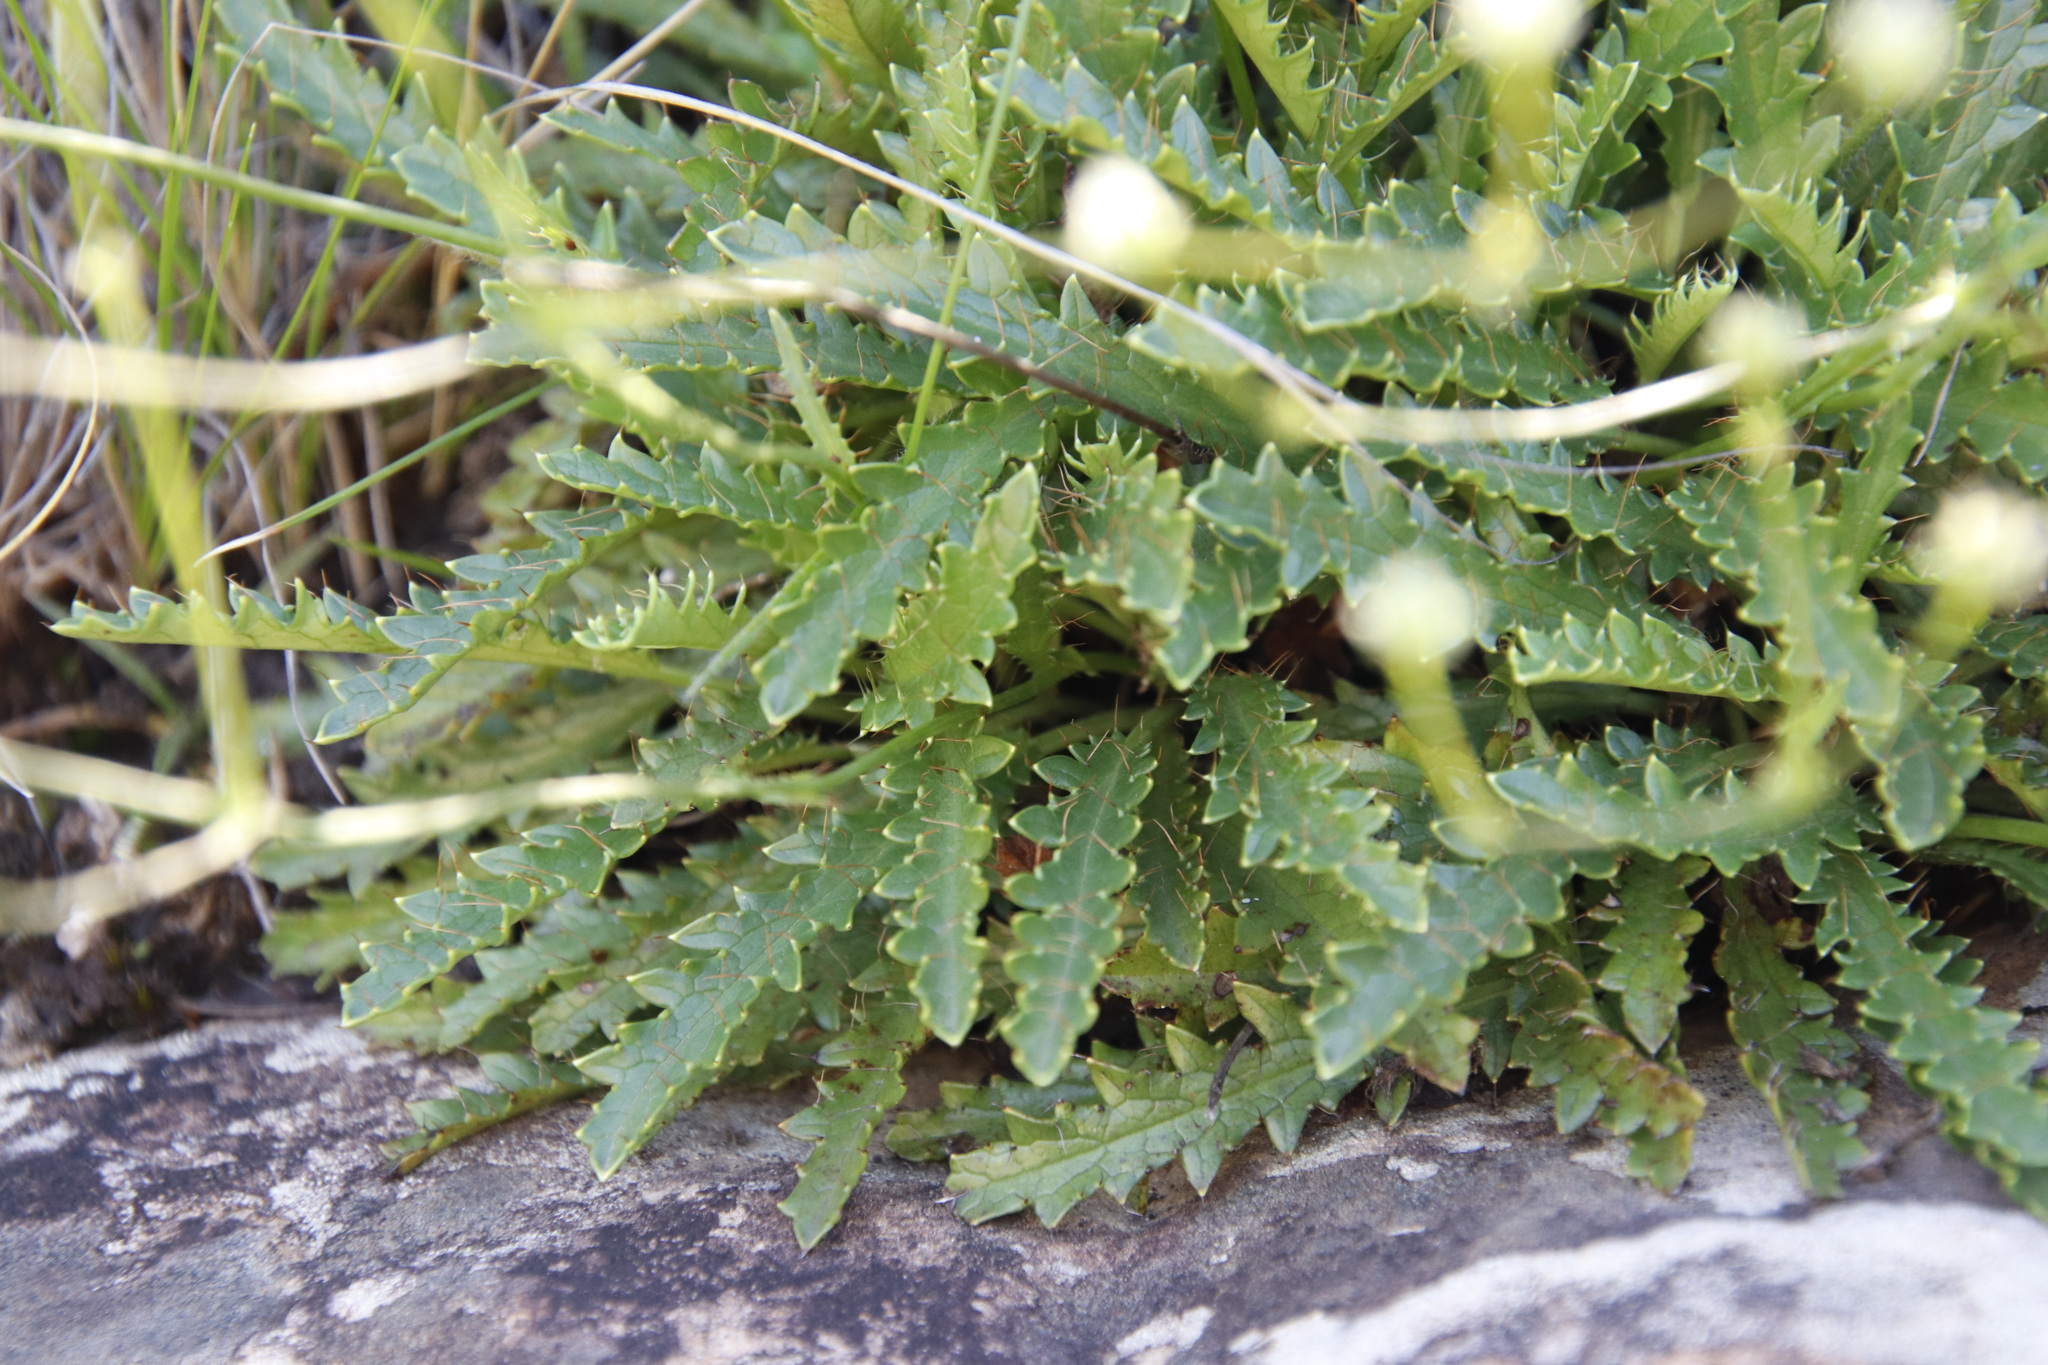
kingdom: Plantae
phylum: Tracheophyta
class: Magnoliopsida
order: Apiales
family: Apiaceae
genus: Alepidea
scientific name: Alepidea duplidens
